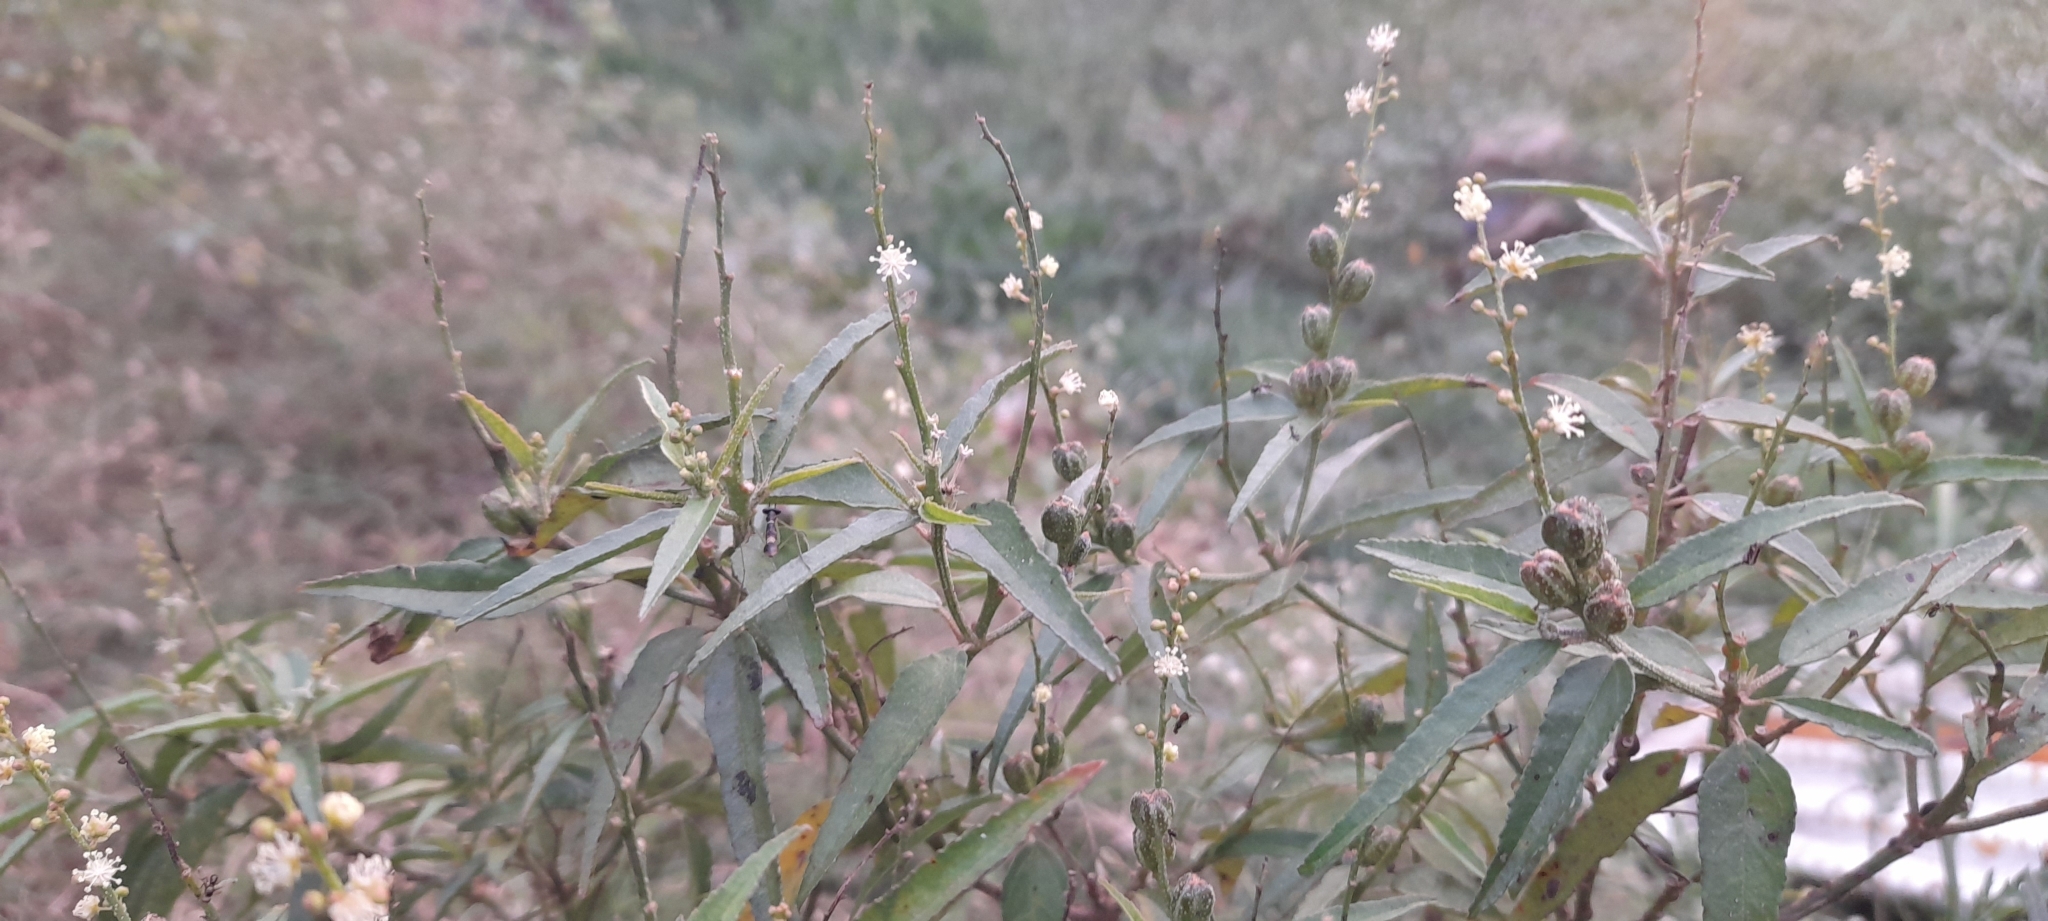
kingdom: Plantae
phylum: Tracheophyta
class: Magnoliopsida
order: Malpighiales
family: Euphorbiaceae
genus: Croton
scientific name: Croton bonplandianus
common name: Bonpland's croton
